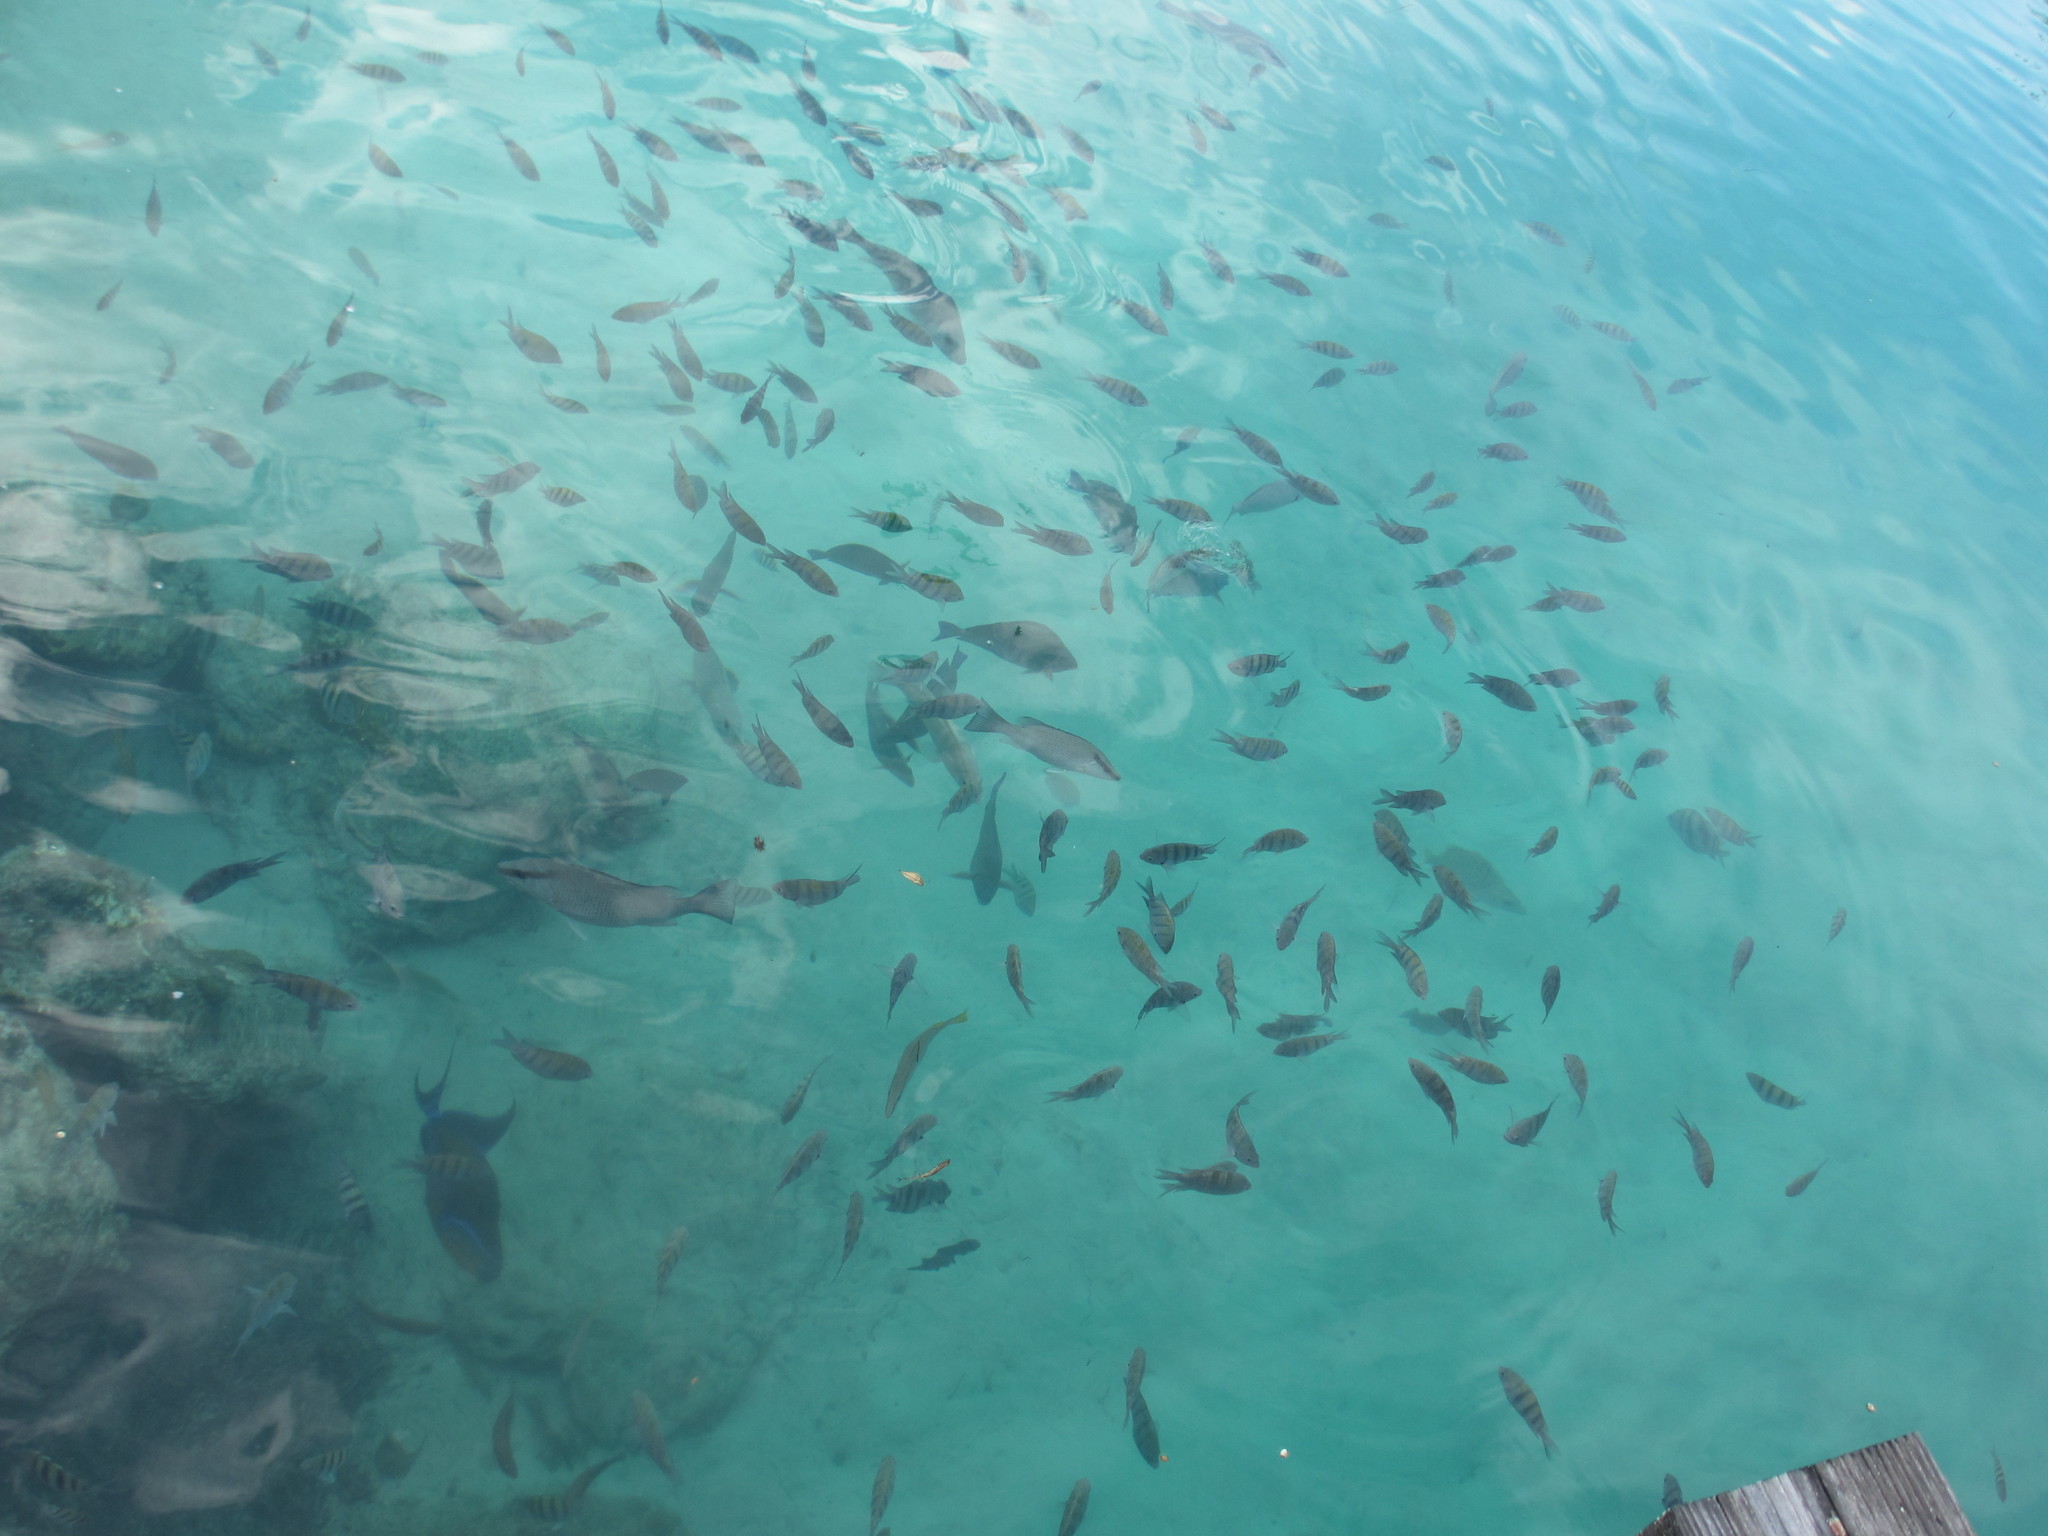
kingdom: Animalia
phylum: Chordata
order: Perciformes
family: Pomacentridae
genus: Abudefduf
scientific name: Abudefduf saxatilis
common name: Sergeant major
